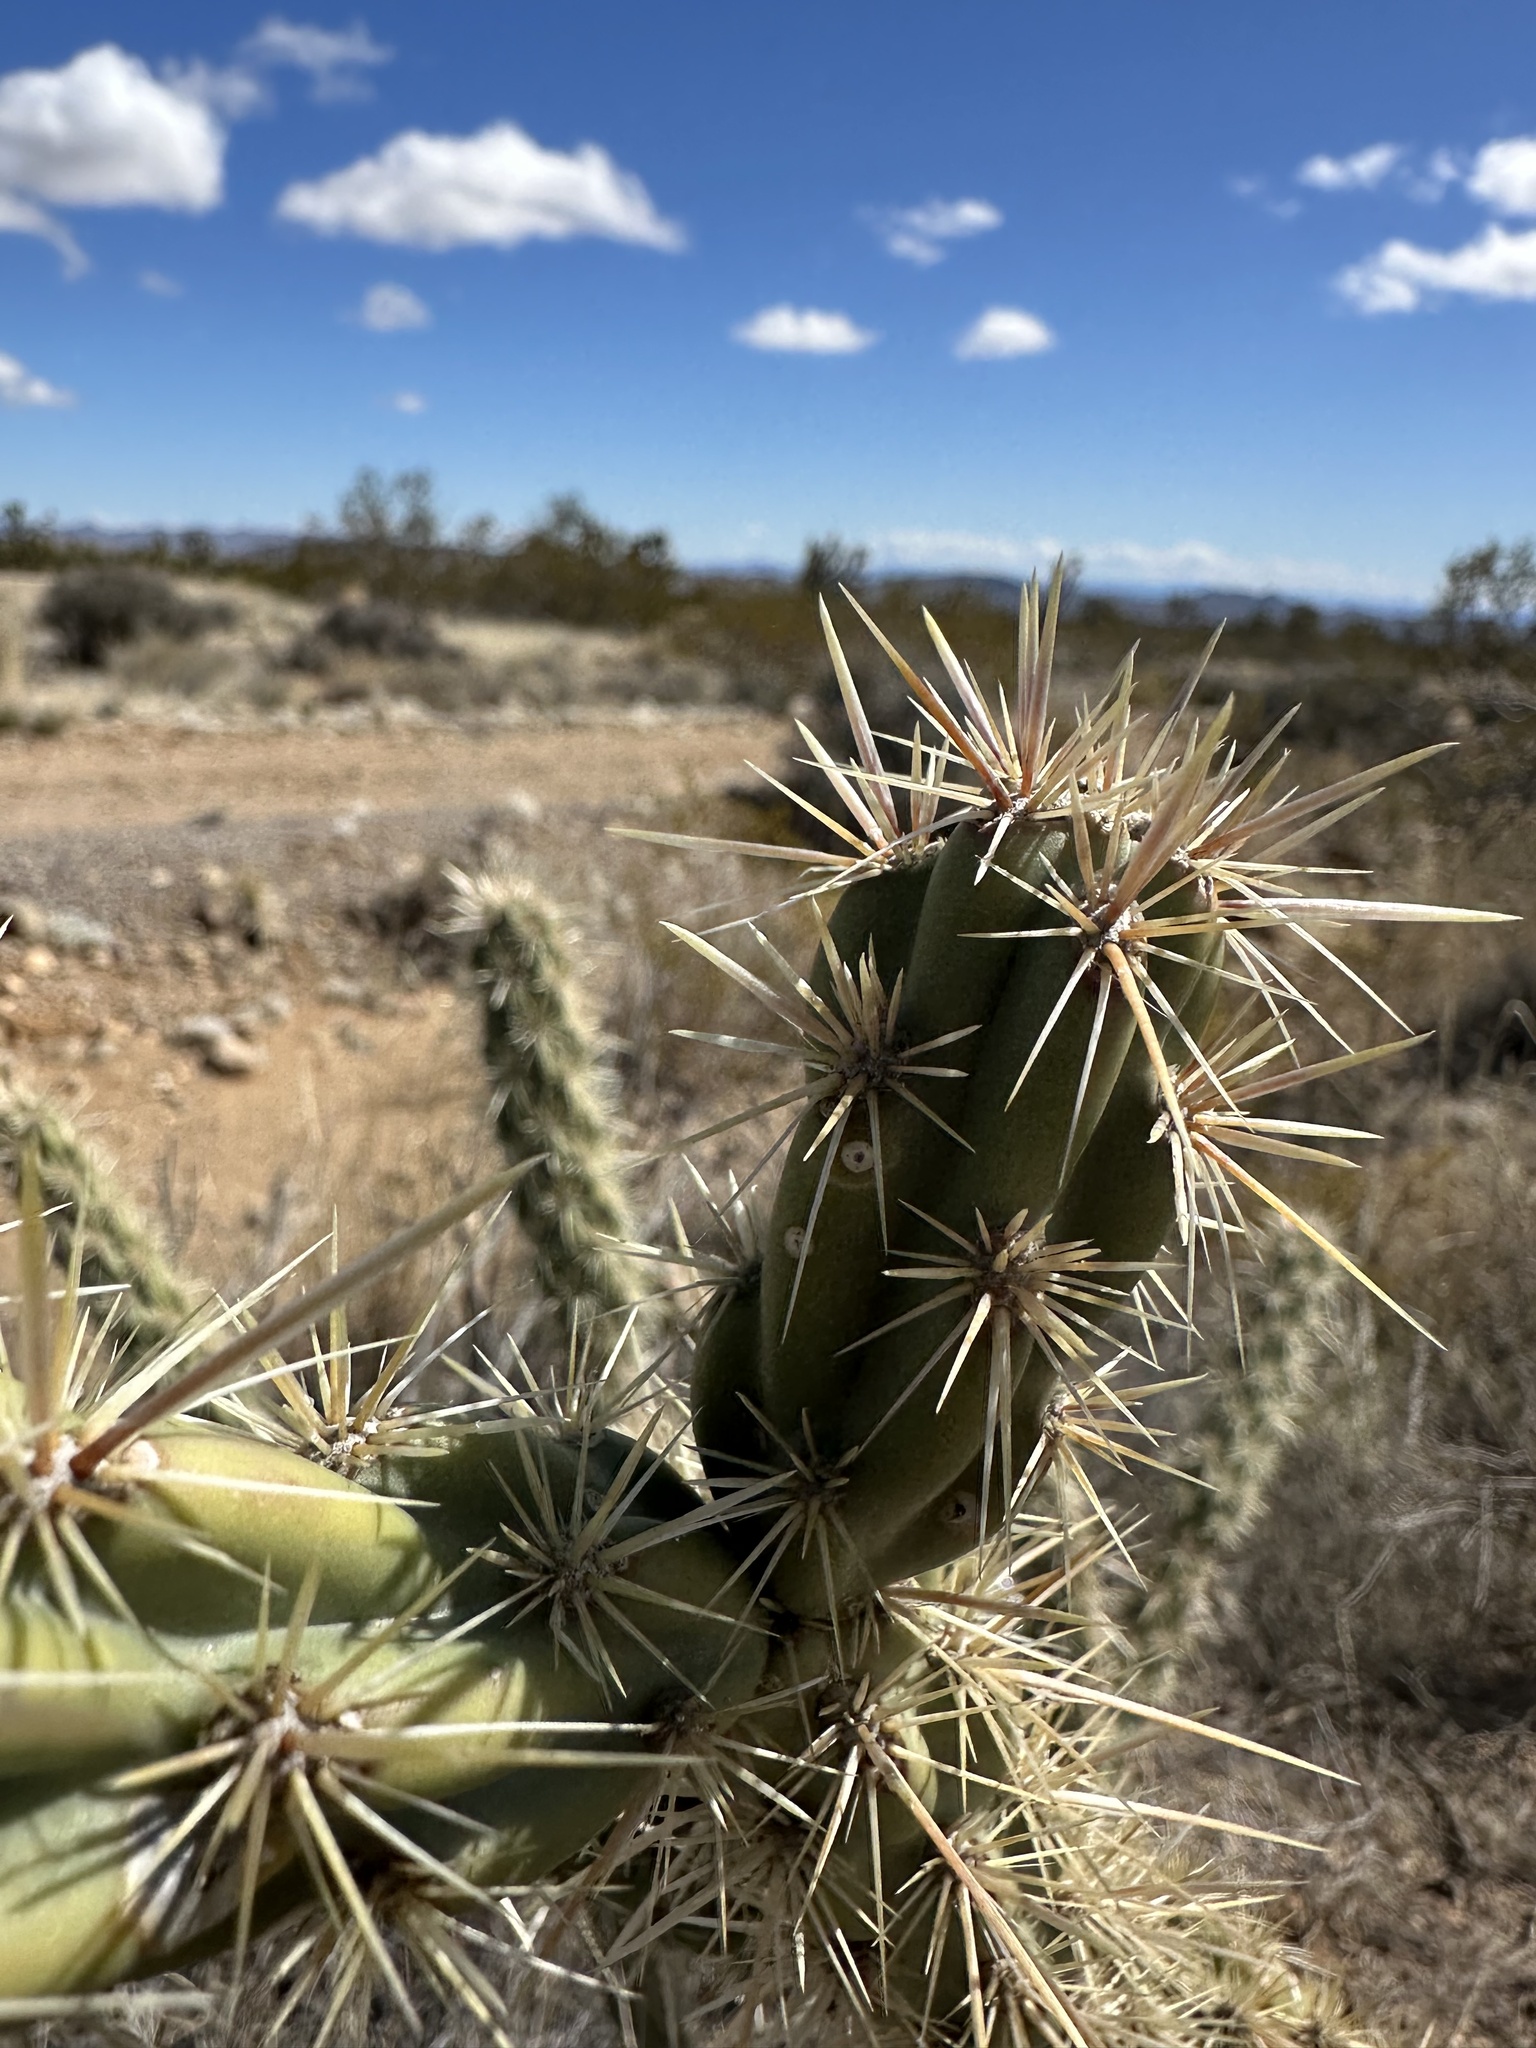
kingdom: Plantae
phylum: Tracheophyta
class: Magnoliopsida
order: Caryophyllales
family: Cactaceae
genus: Cylindropuntia
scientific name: Cylindropuntia acanthocarpa
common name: Buckhorn cholla
